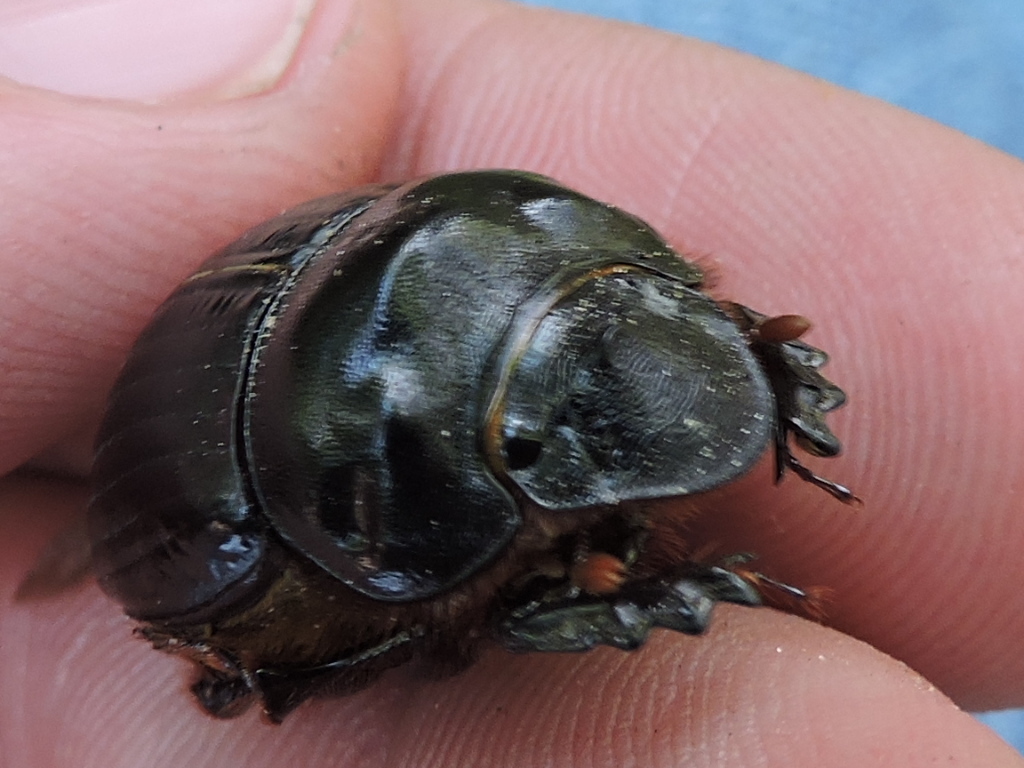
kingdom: Animalia
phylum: Arthropoda
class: Insecta
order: Coleoptera
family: Scarabaeidae
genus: Dichotomius
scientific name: Dichotomius carolinus
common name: Carolina copris
